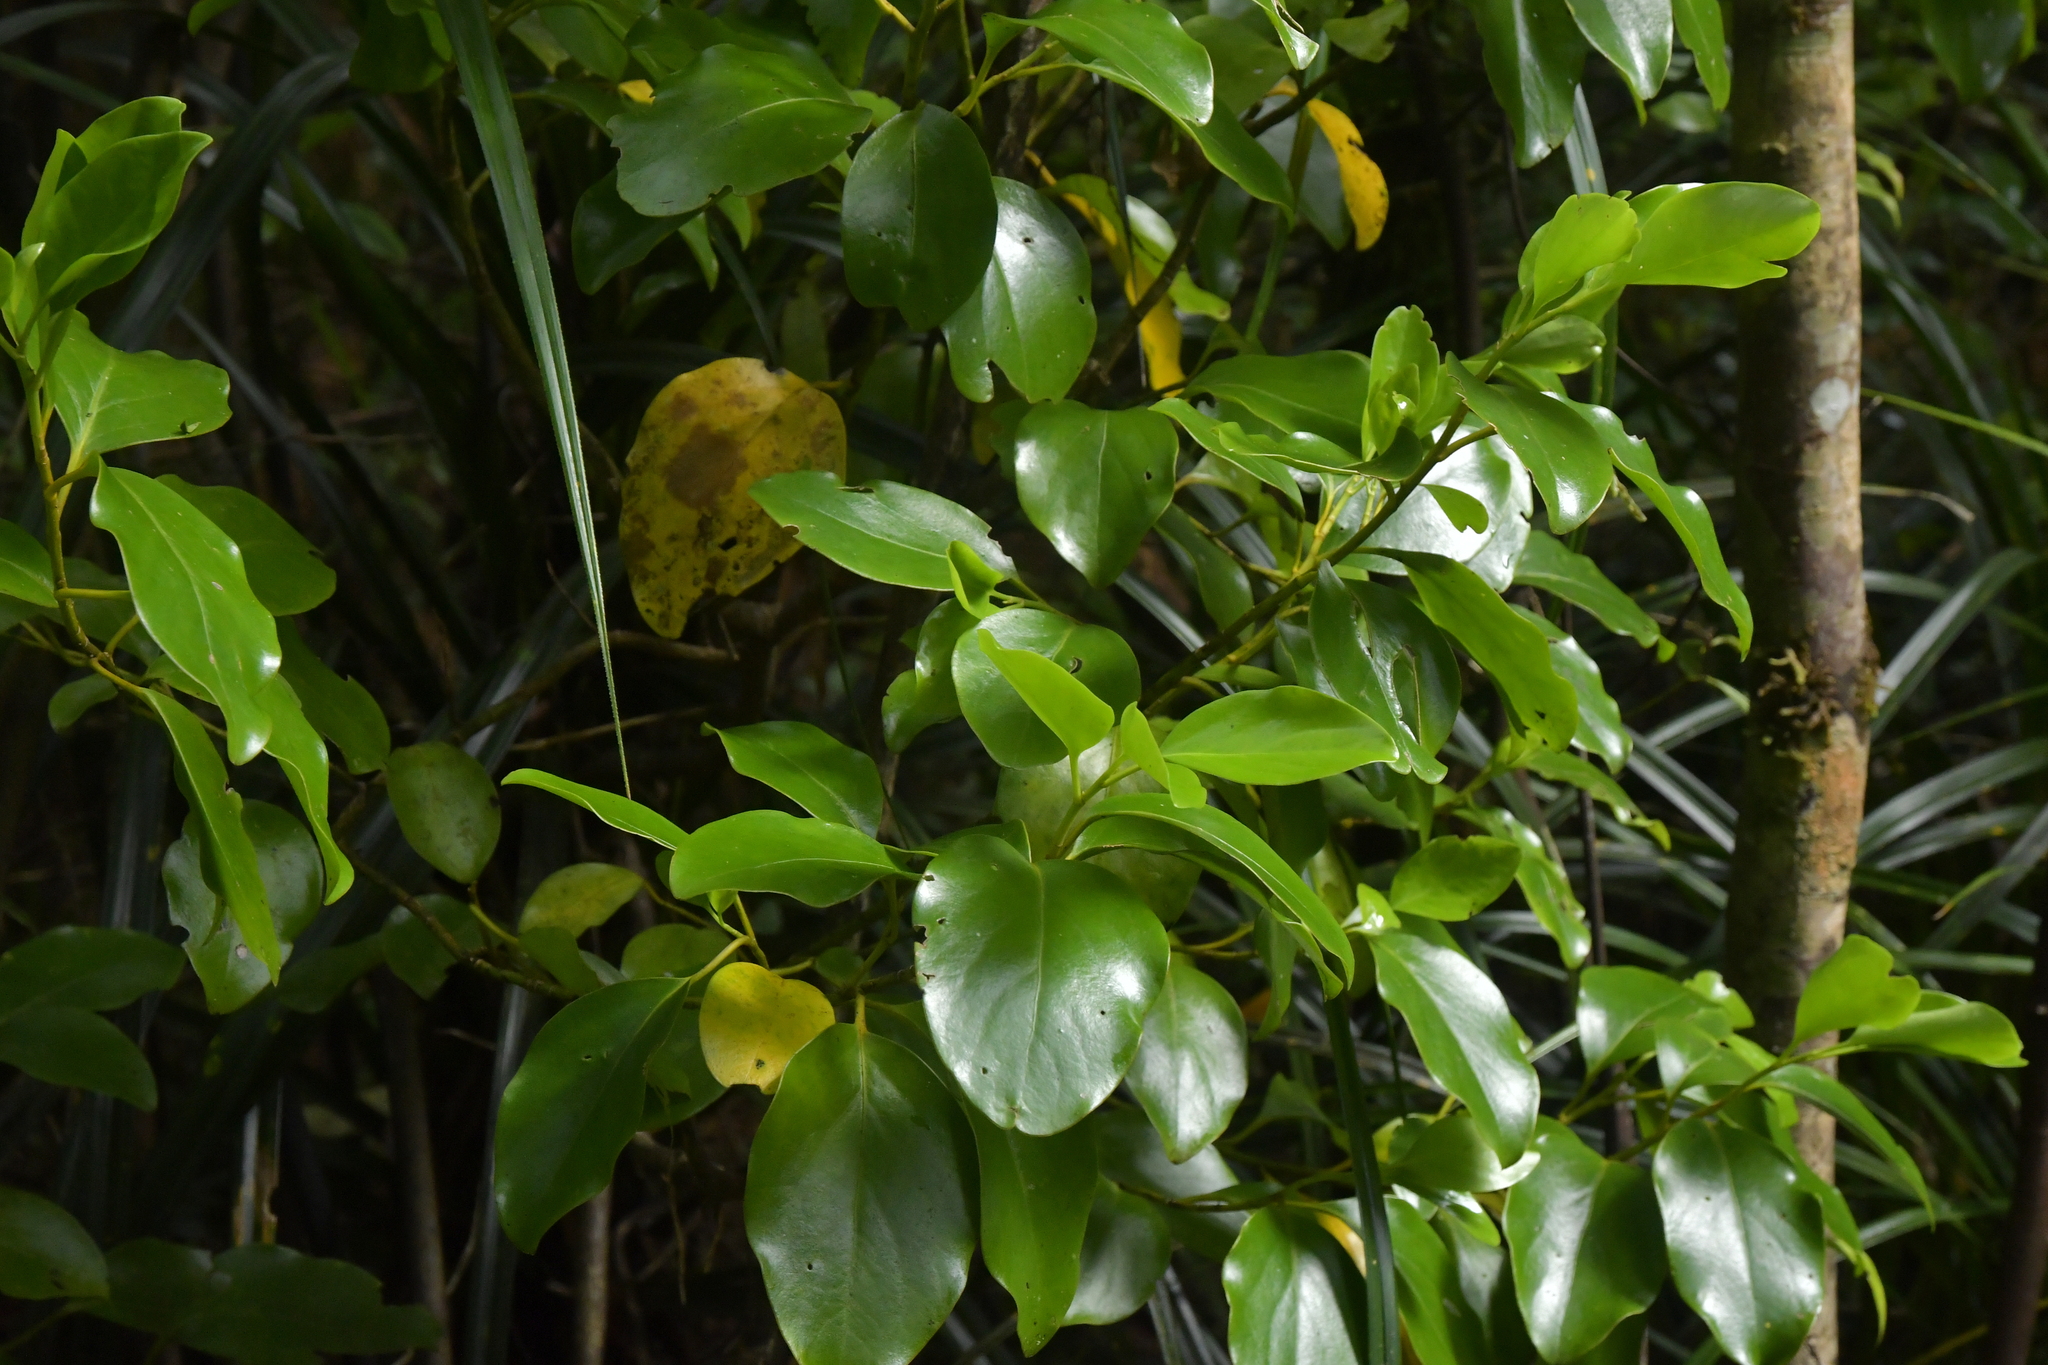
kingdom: Plantae
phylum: Tracheophyta
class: Magnoliopsida
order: Apiales
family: Griseliniaceae
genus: Griselinia
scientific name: Griselinia littoralis
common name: New zealand broadleaf
